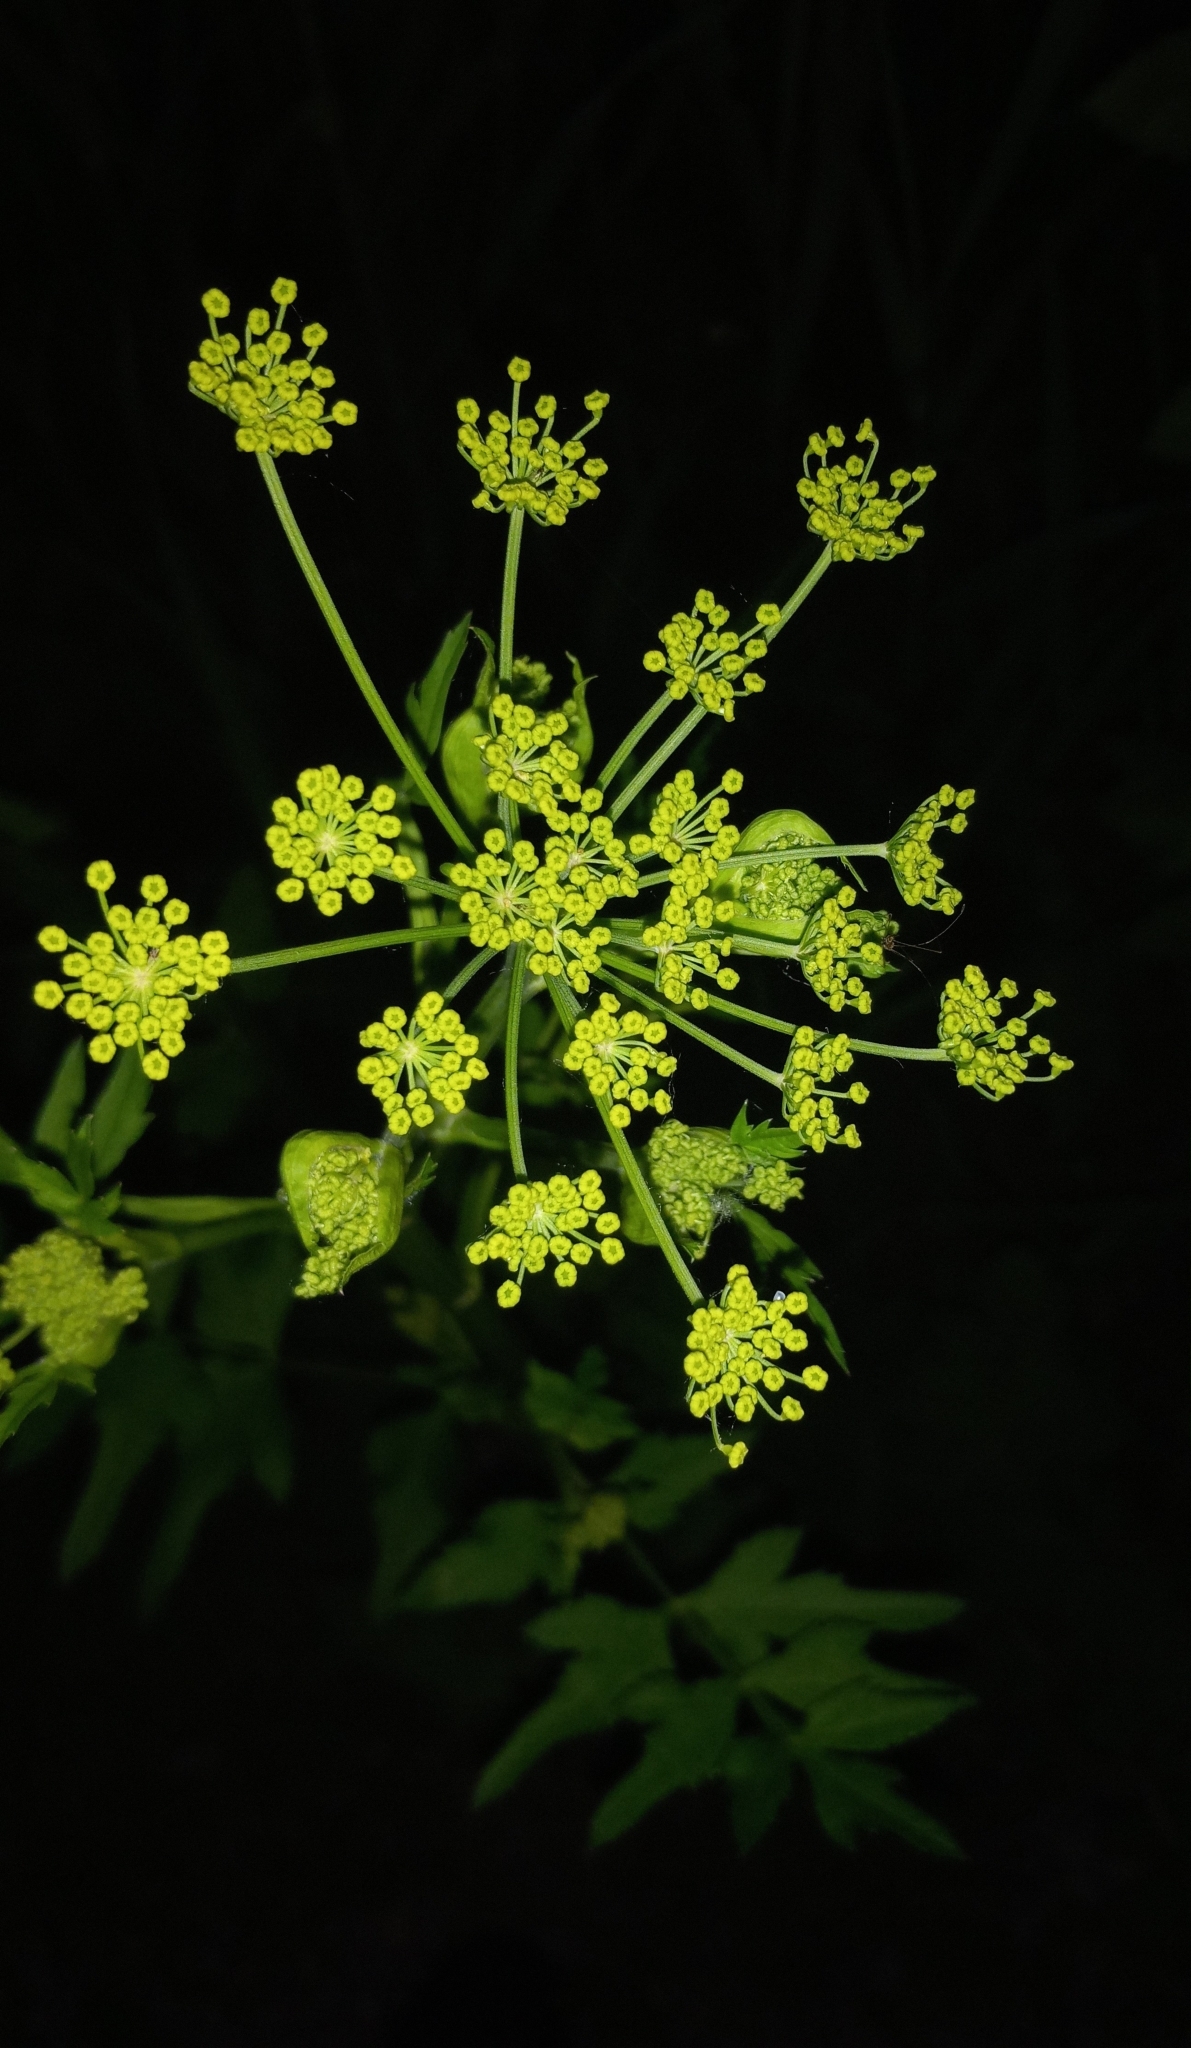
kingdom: Plantae
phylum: Tracheophyta
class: Magnoliopsida
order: Apiales
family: Apiaceae
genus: Pastinaca
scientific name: Pastinaca sativa
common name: Wild parsnip
